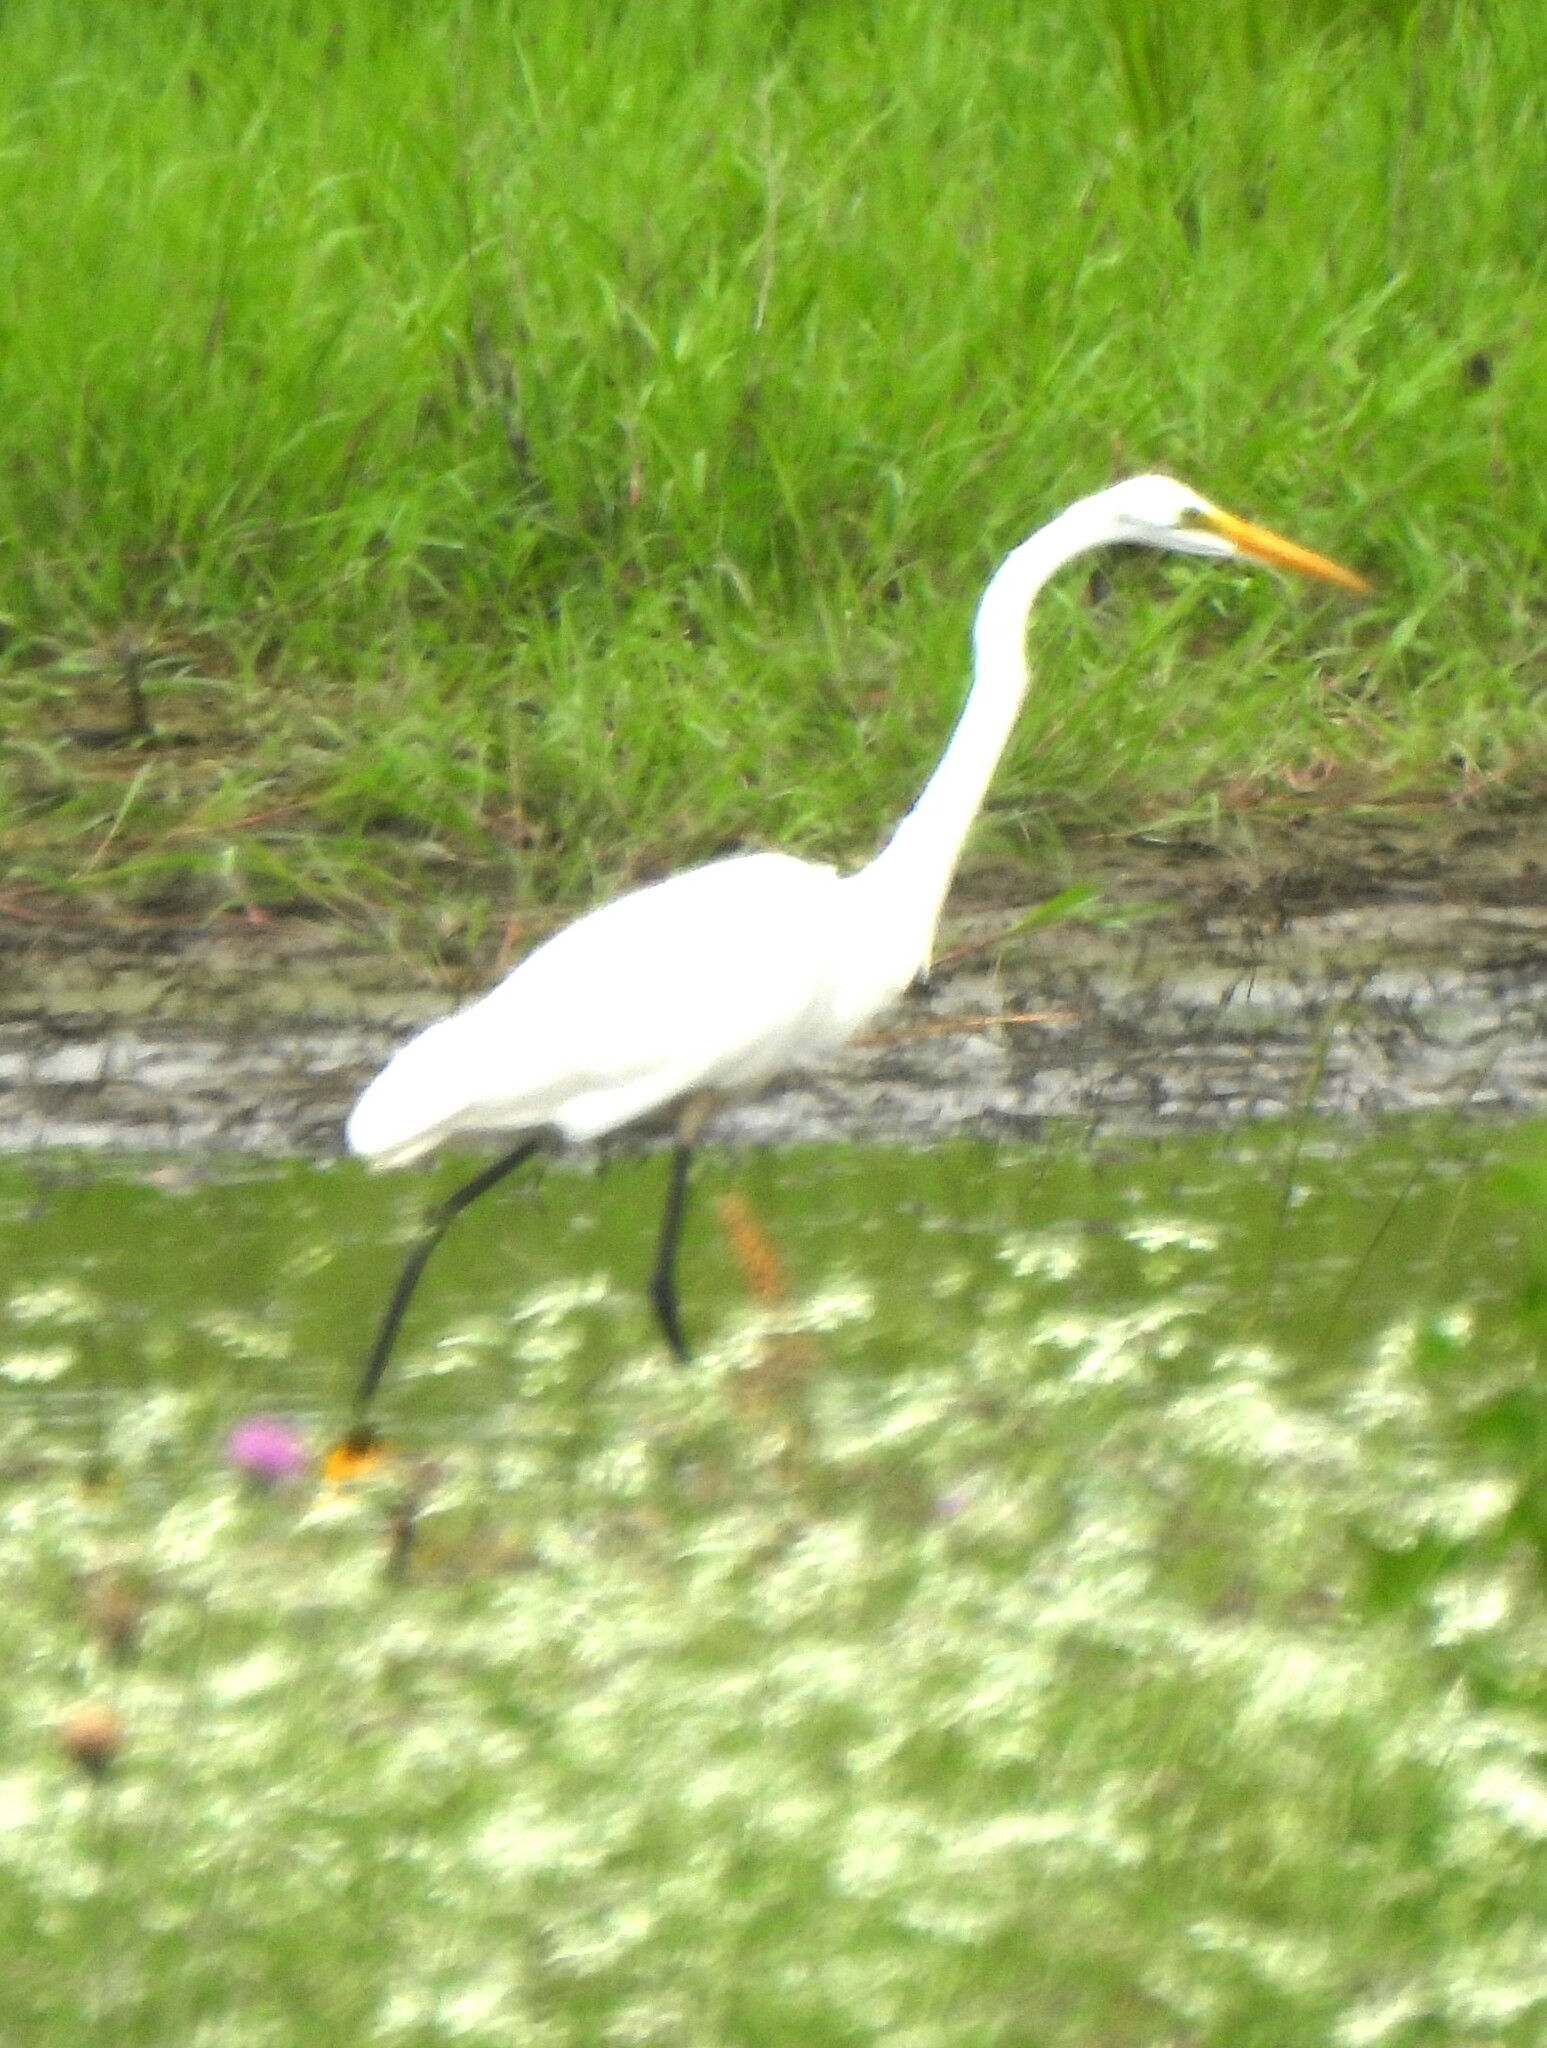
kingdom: Animalia
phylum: Chordata
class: Aves
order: Pelecaniformes
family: Ardeidae
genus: Ardea
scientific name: Ardea alba
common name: Great egret
